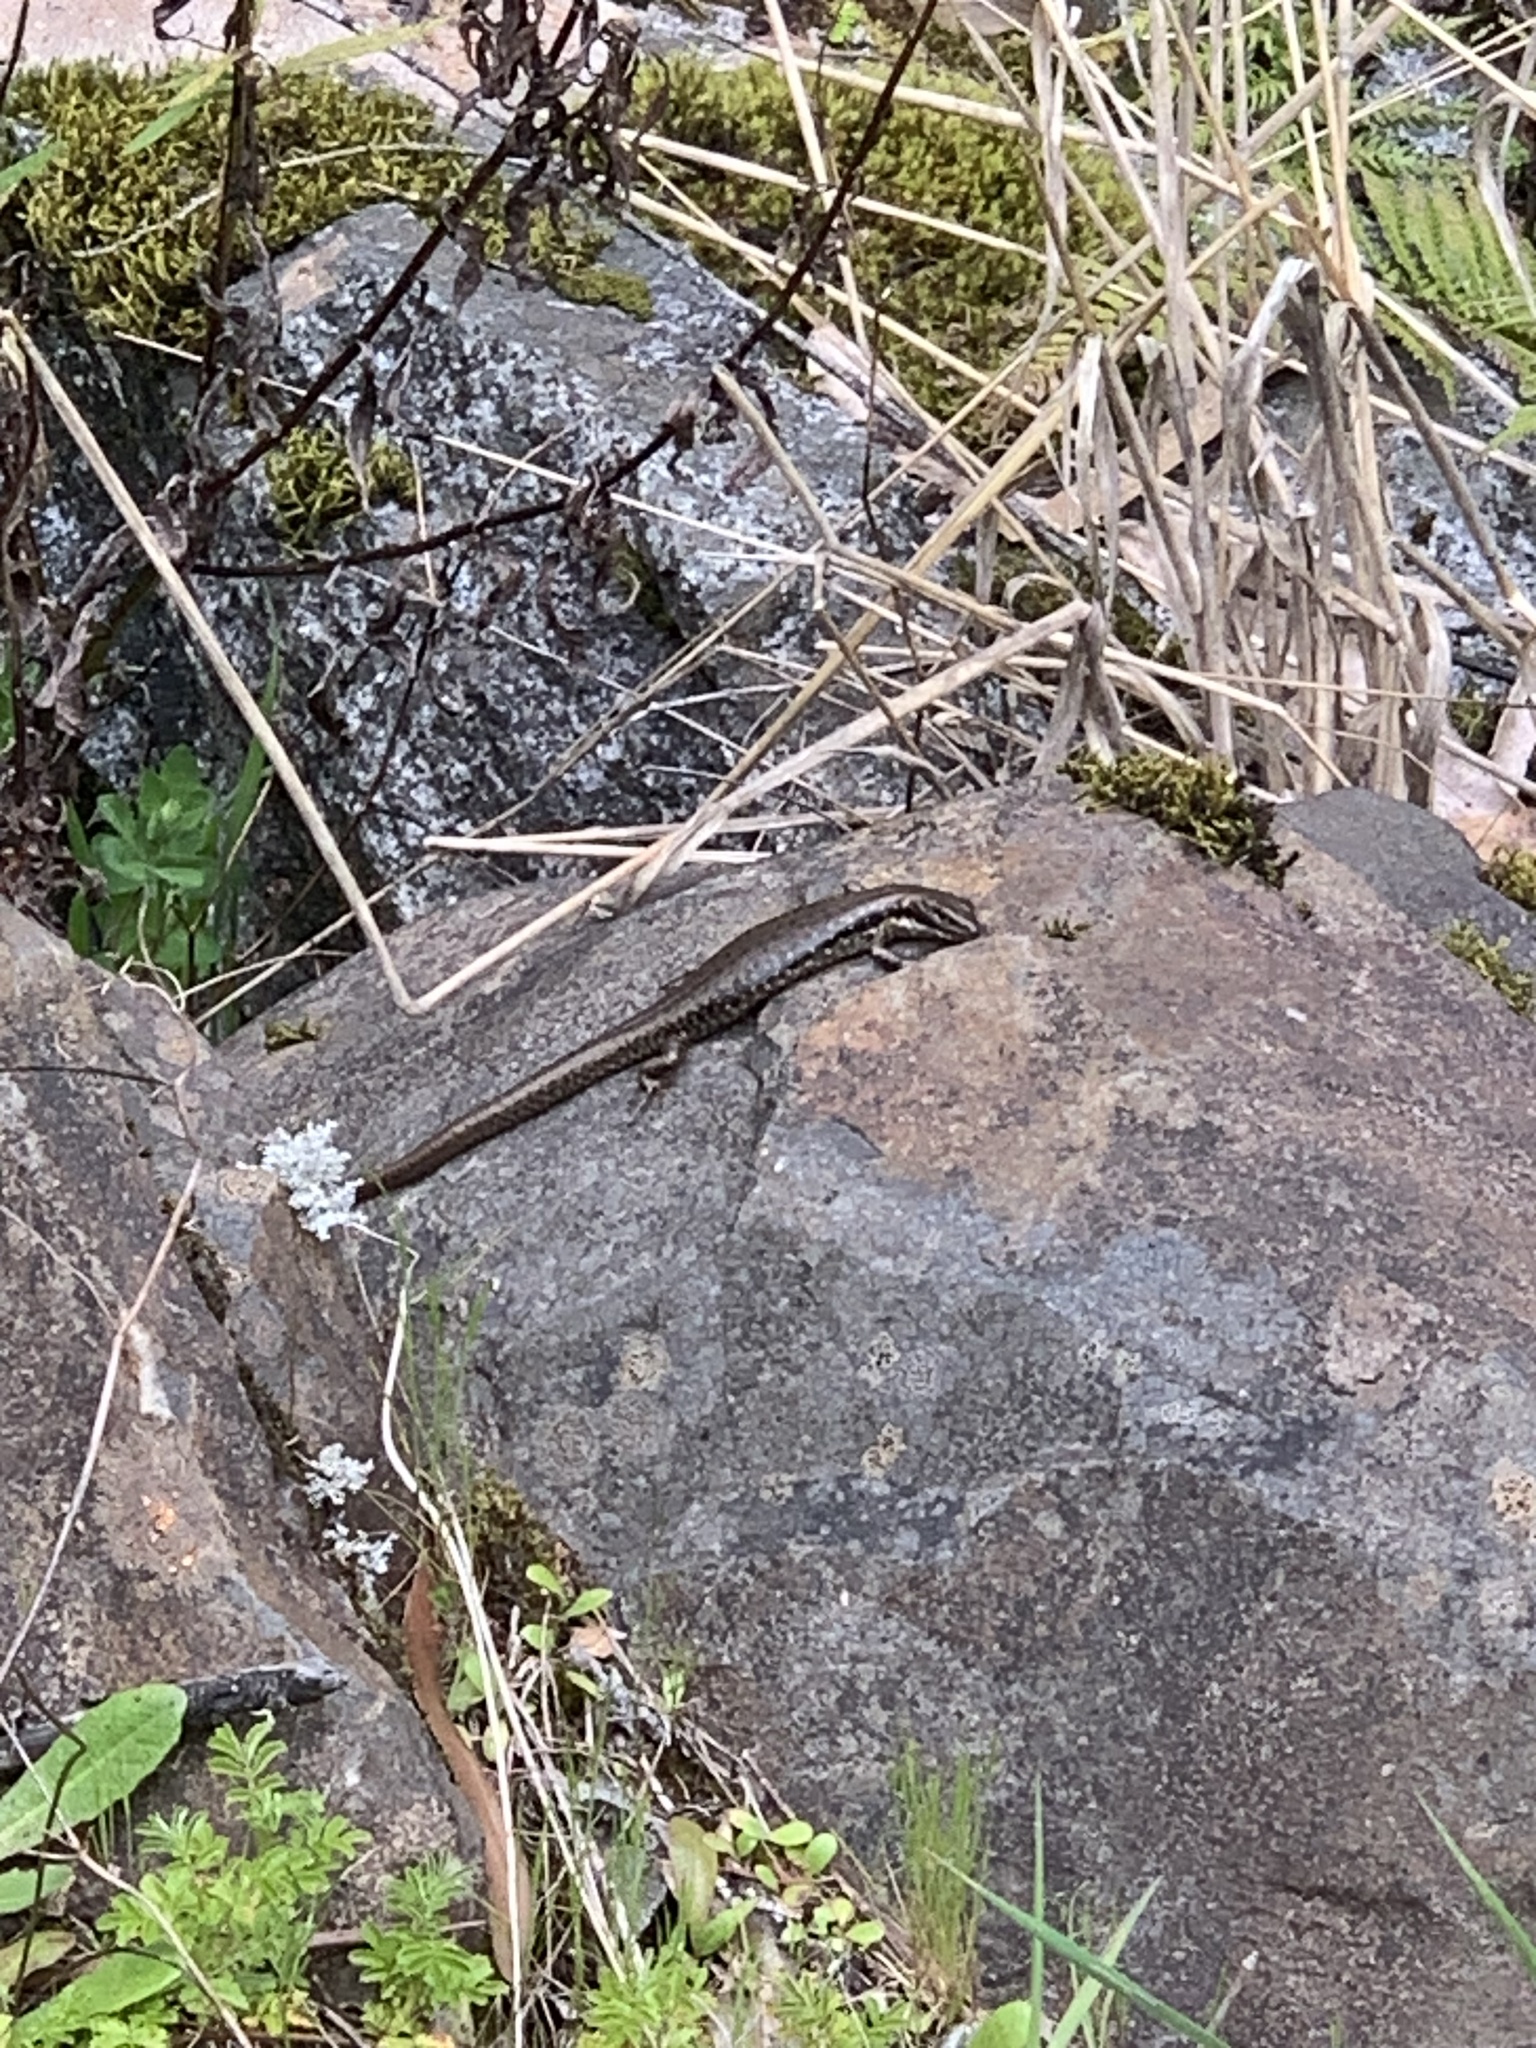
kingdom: Animalia
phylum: Chordata
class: Squamata
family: Scincidae
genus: Eulamprus
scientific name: Eulamprus tympanum
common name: Cool-temperate water-skink
